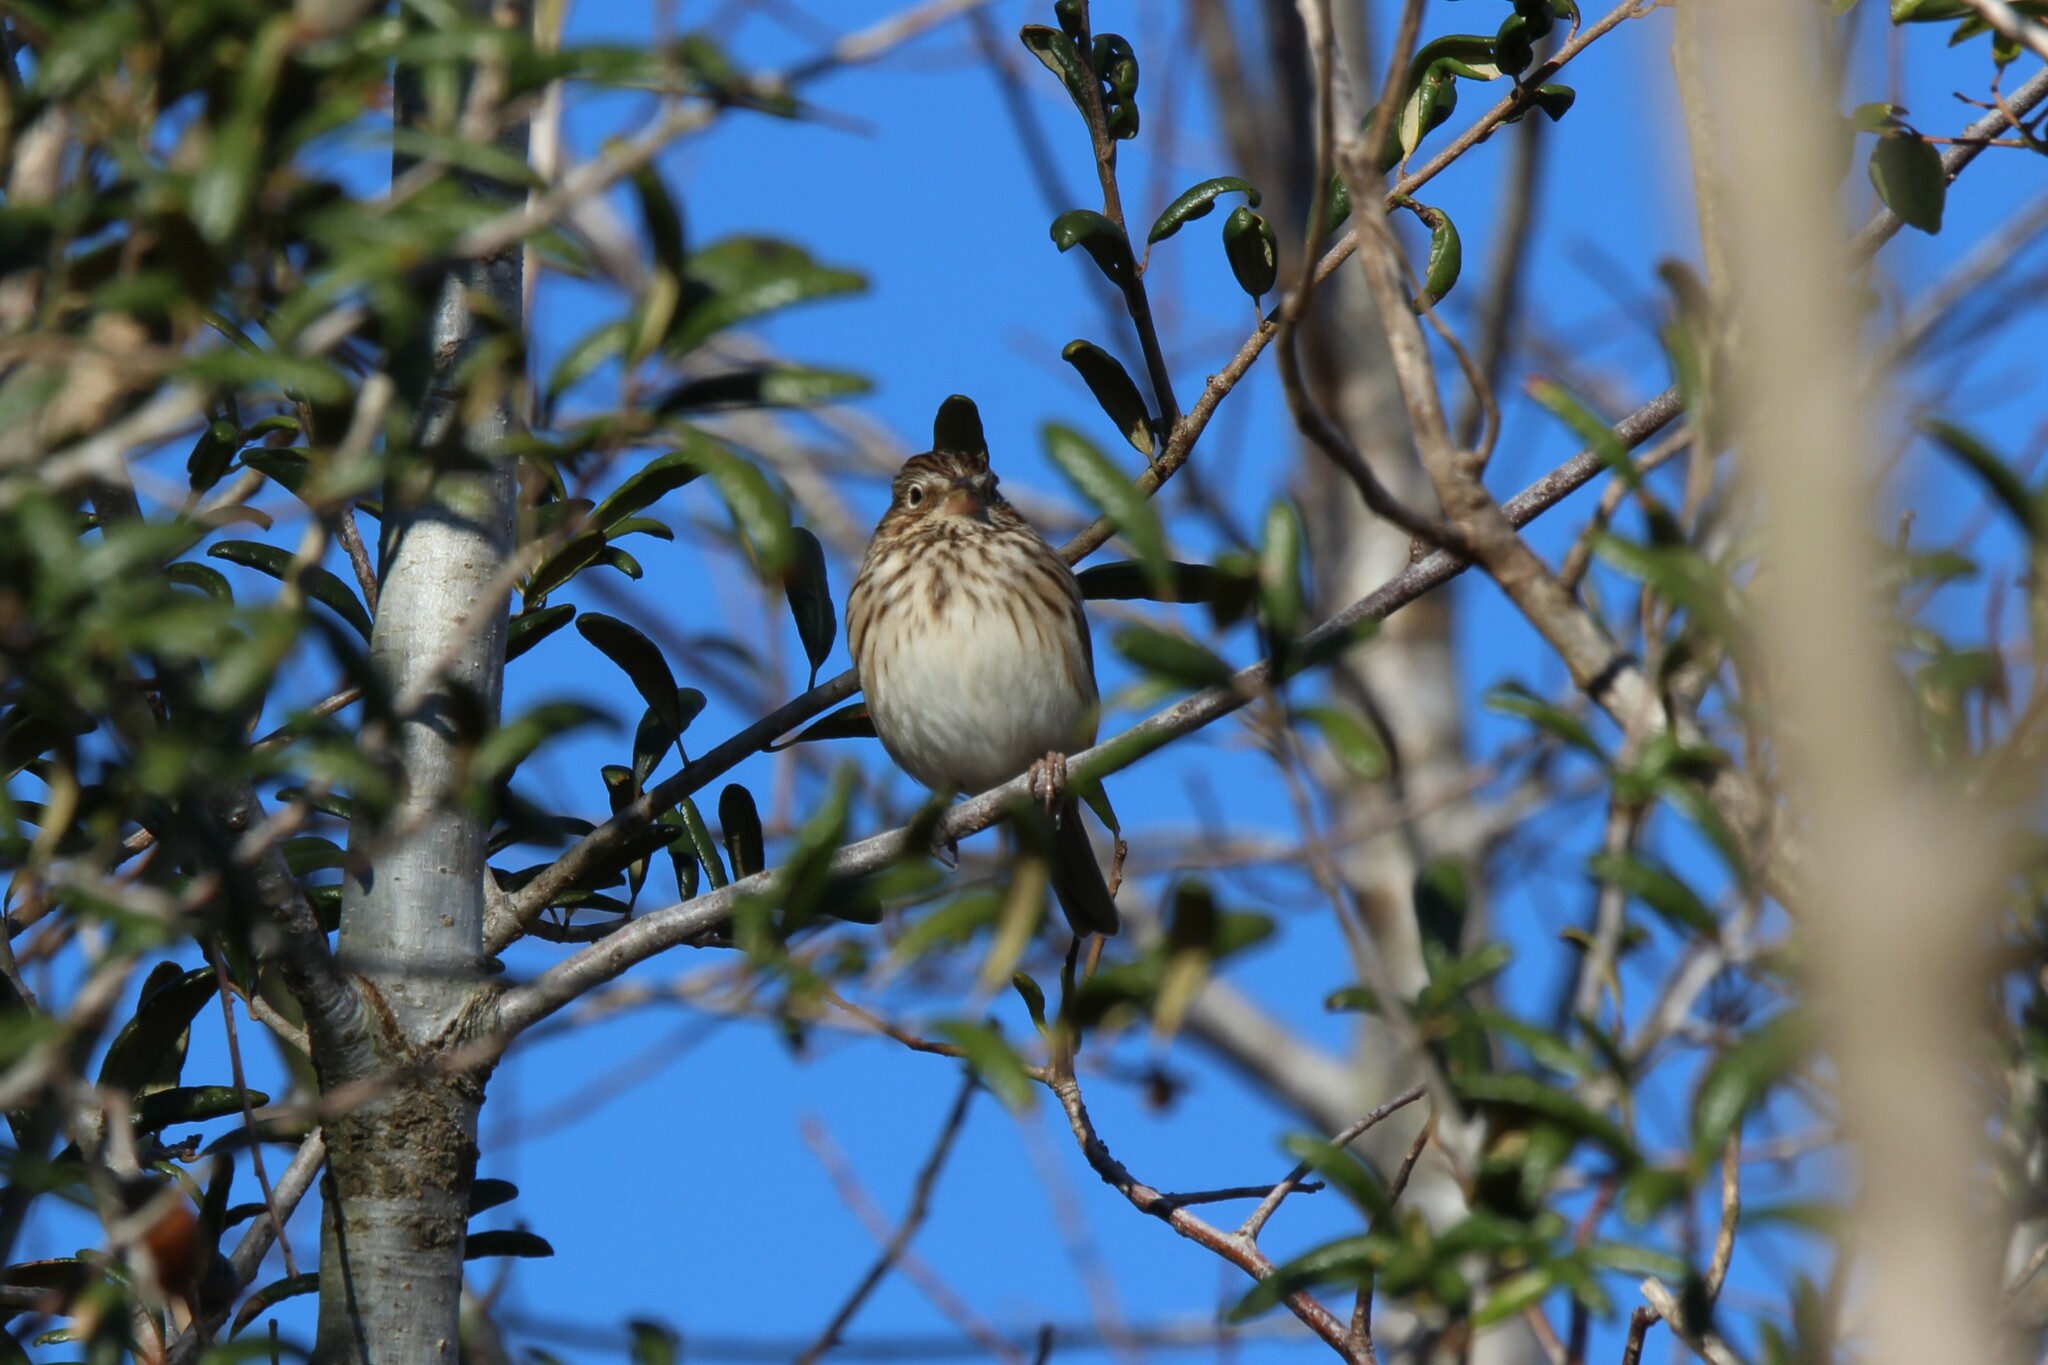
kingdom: Animalia
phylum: Chordata
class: Aves
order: Passeriformes
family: Passerellidae
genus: Pooecetes
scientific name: Pooecetes gramineus
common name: Vesper sparrow
